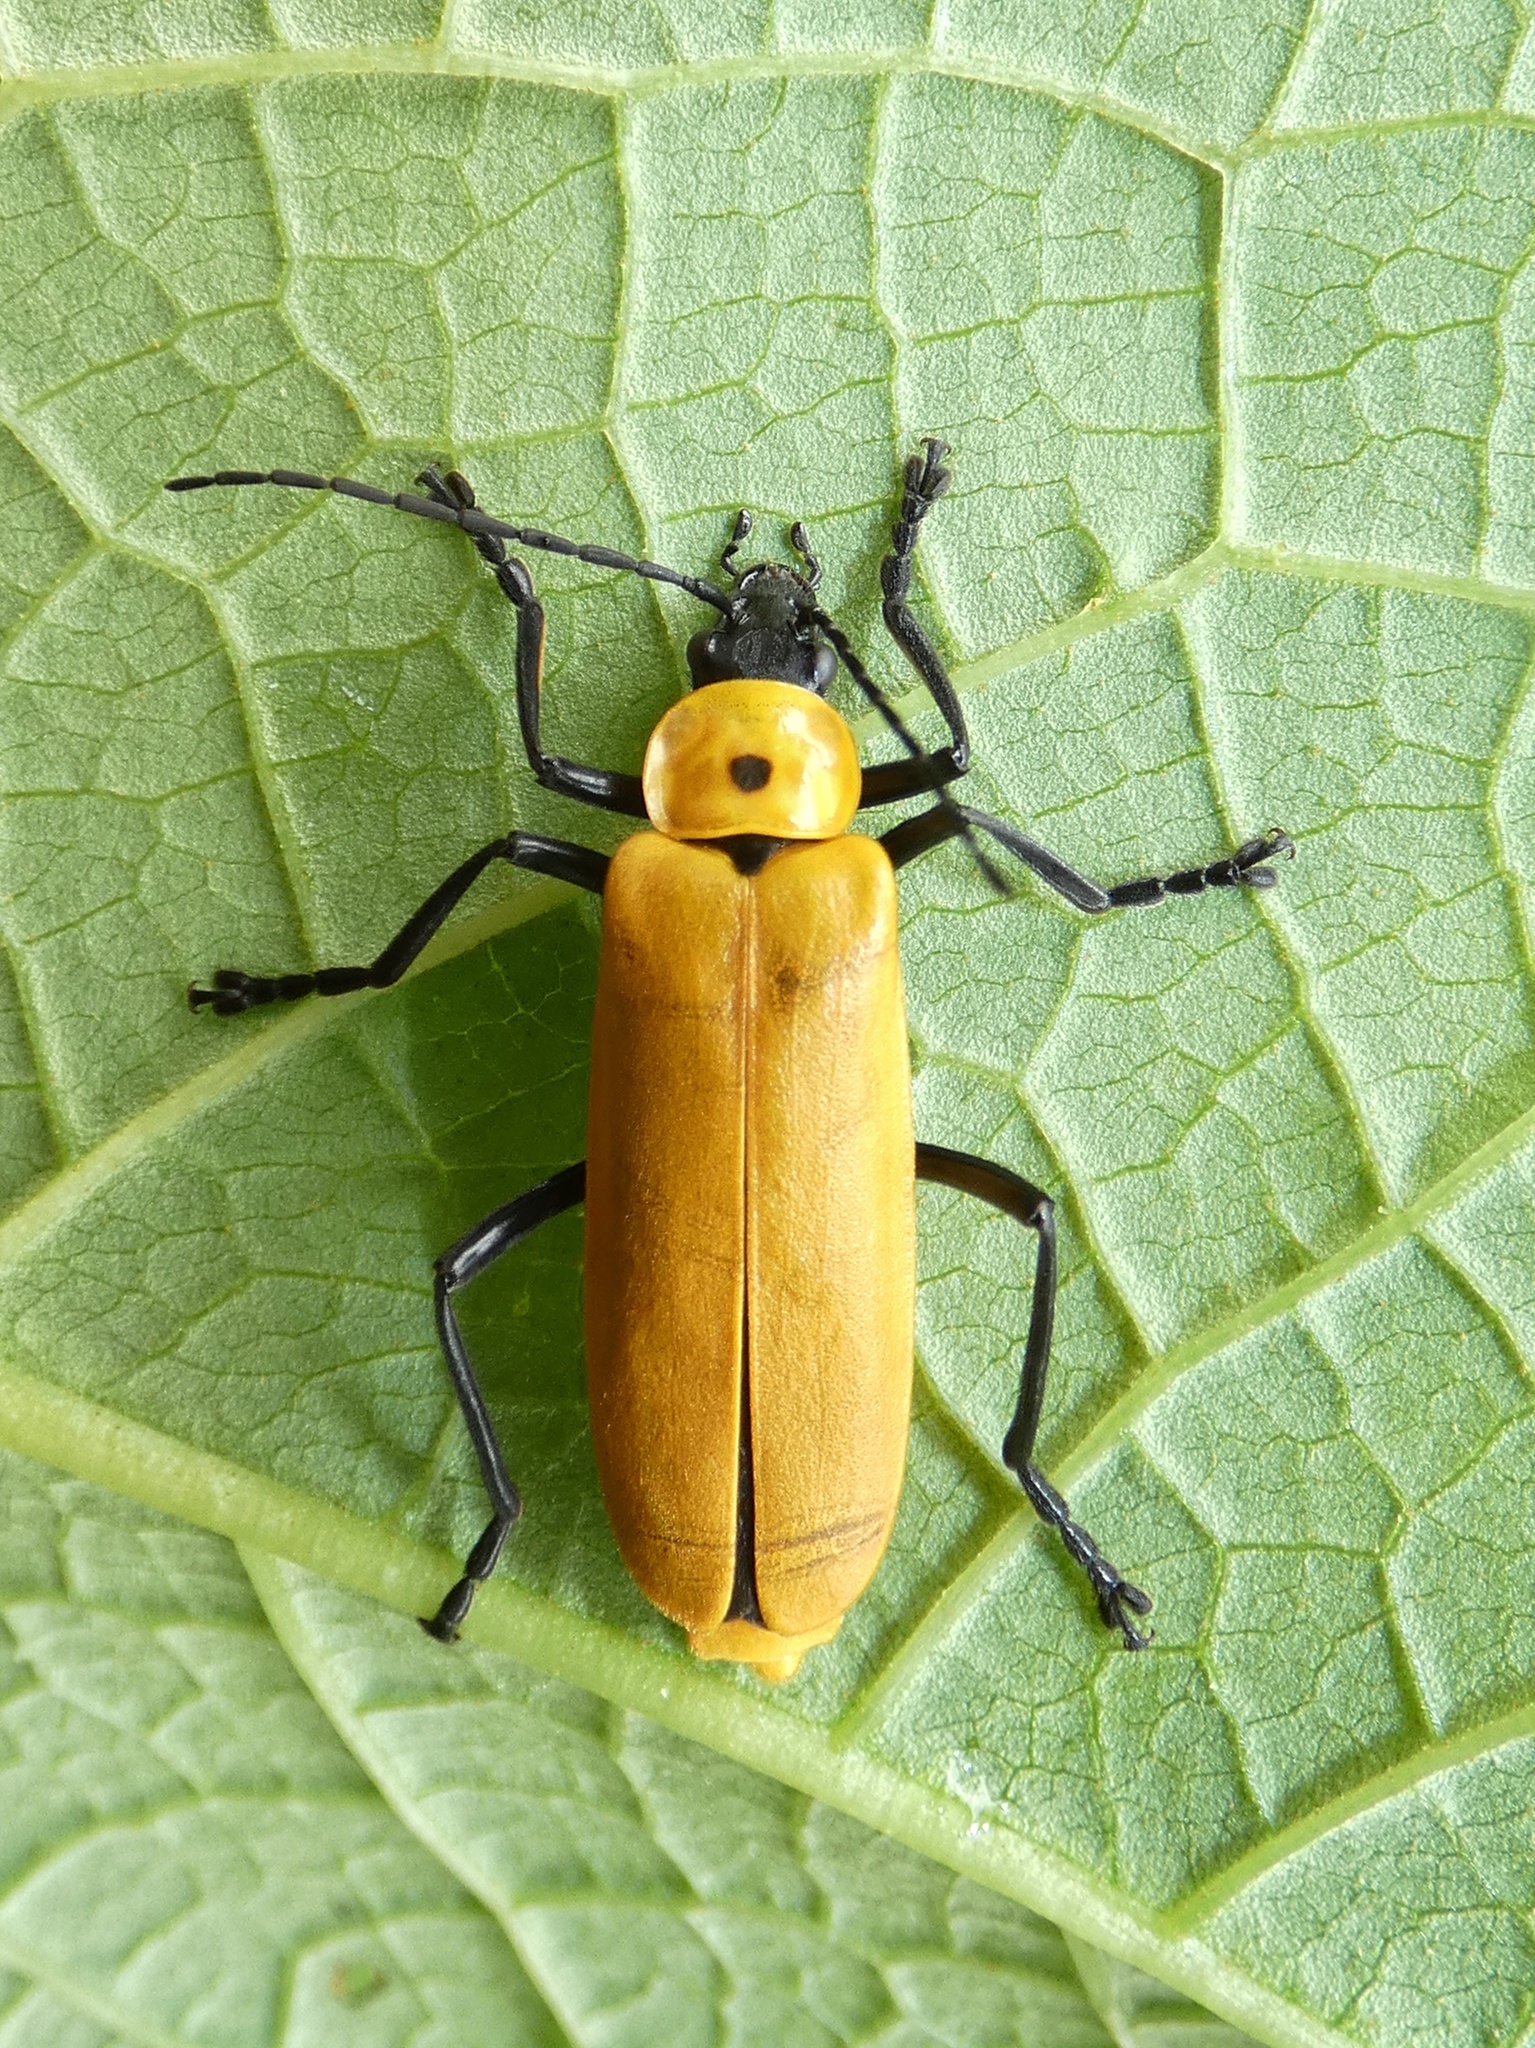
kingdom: Animalia
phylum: Arthropoda
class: Insecta
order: Coleoptera
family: Cantharidae
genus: Chauliognathus
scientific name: Chauliognathus
